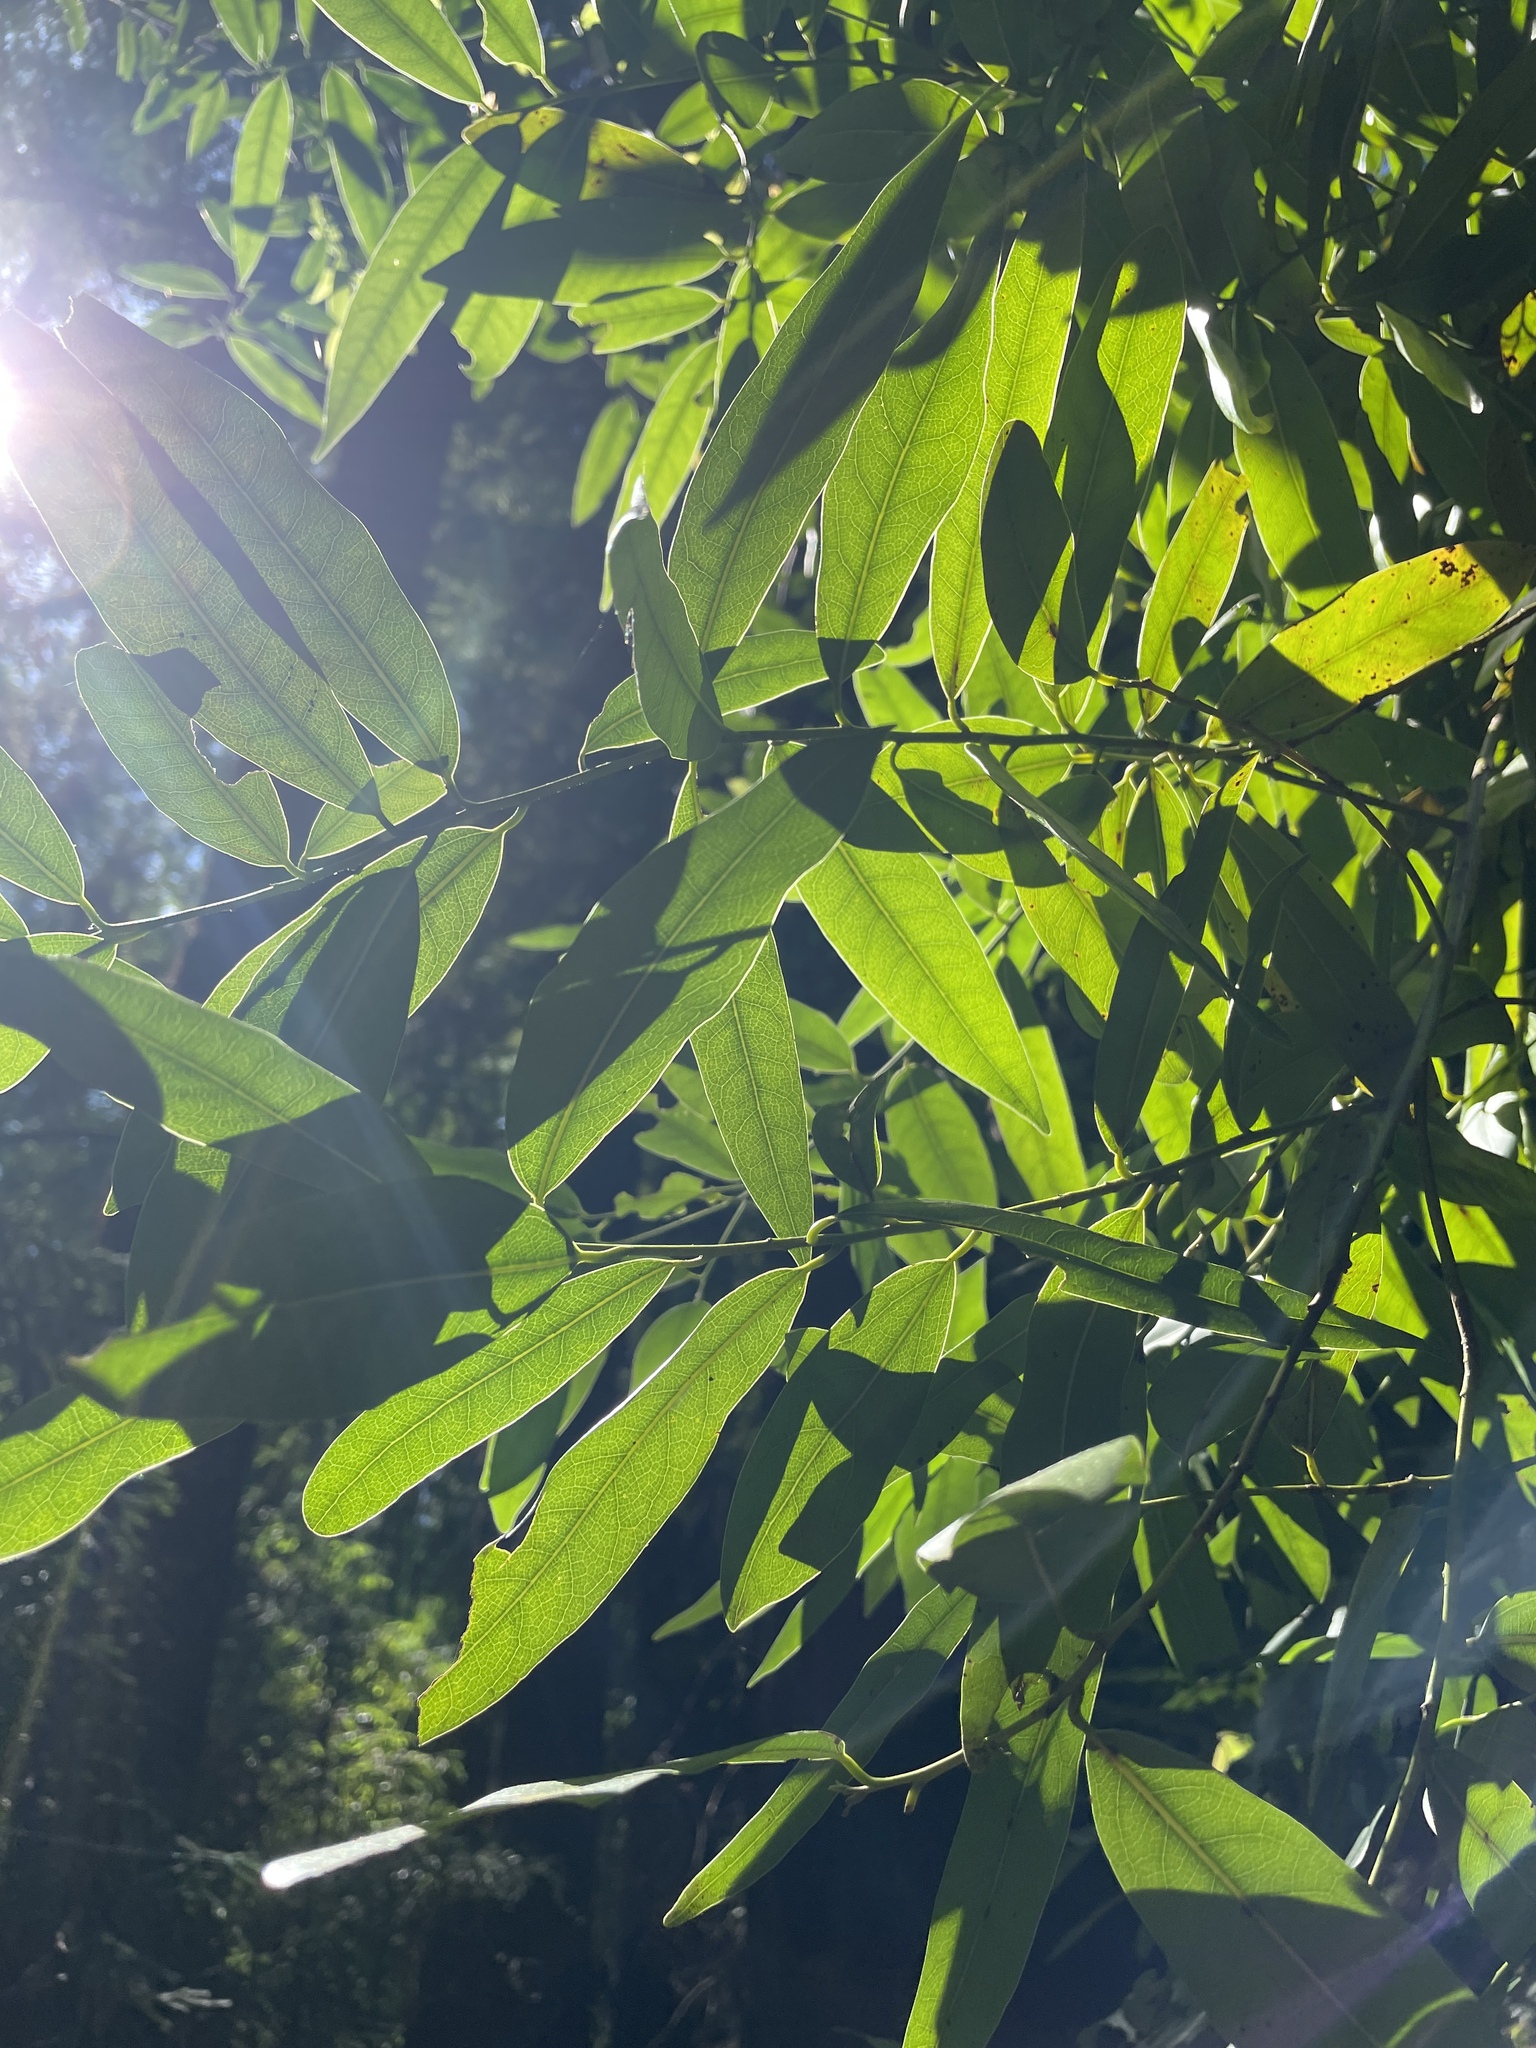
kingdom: Plantae
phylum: Tracheophyta
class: Magnoliopsida
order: Laurales
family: Lauraceae
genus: Umbellularia
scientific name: Umbellularia californica
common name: California bay
